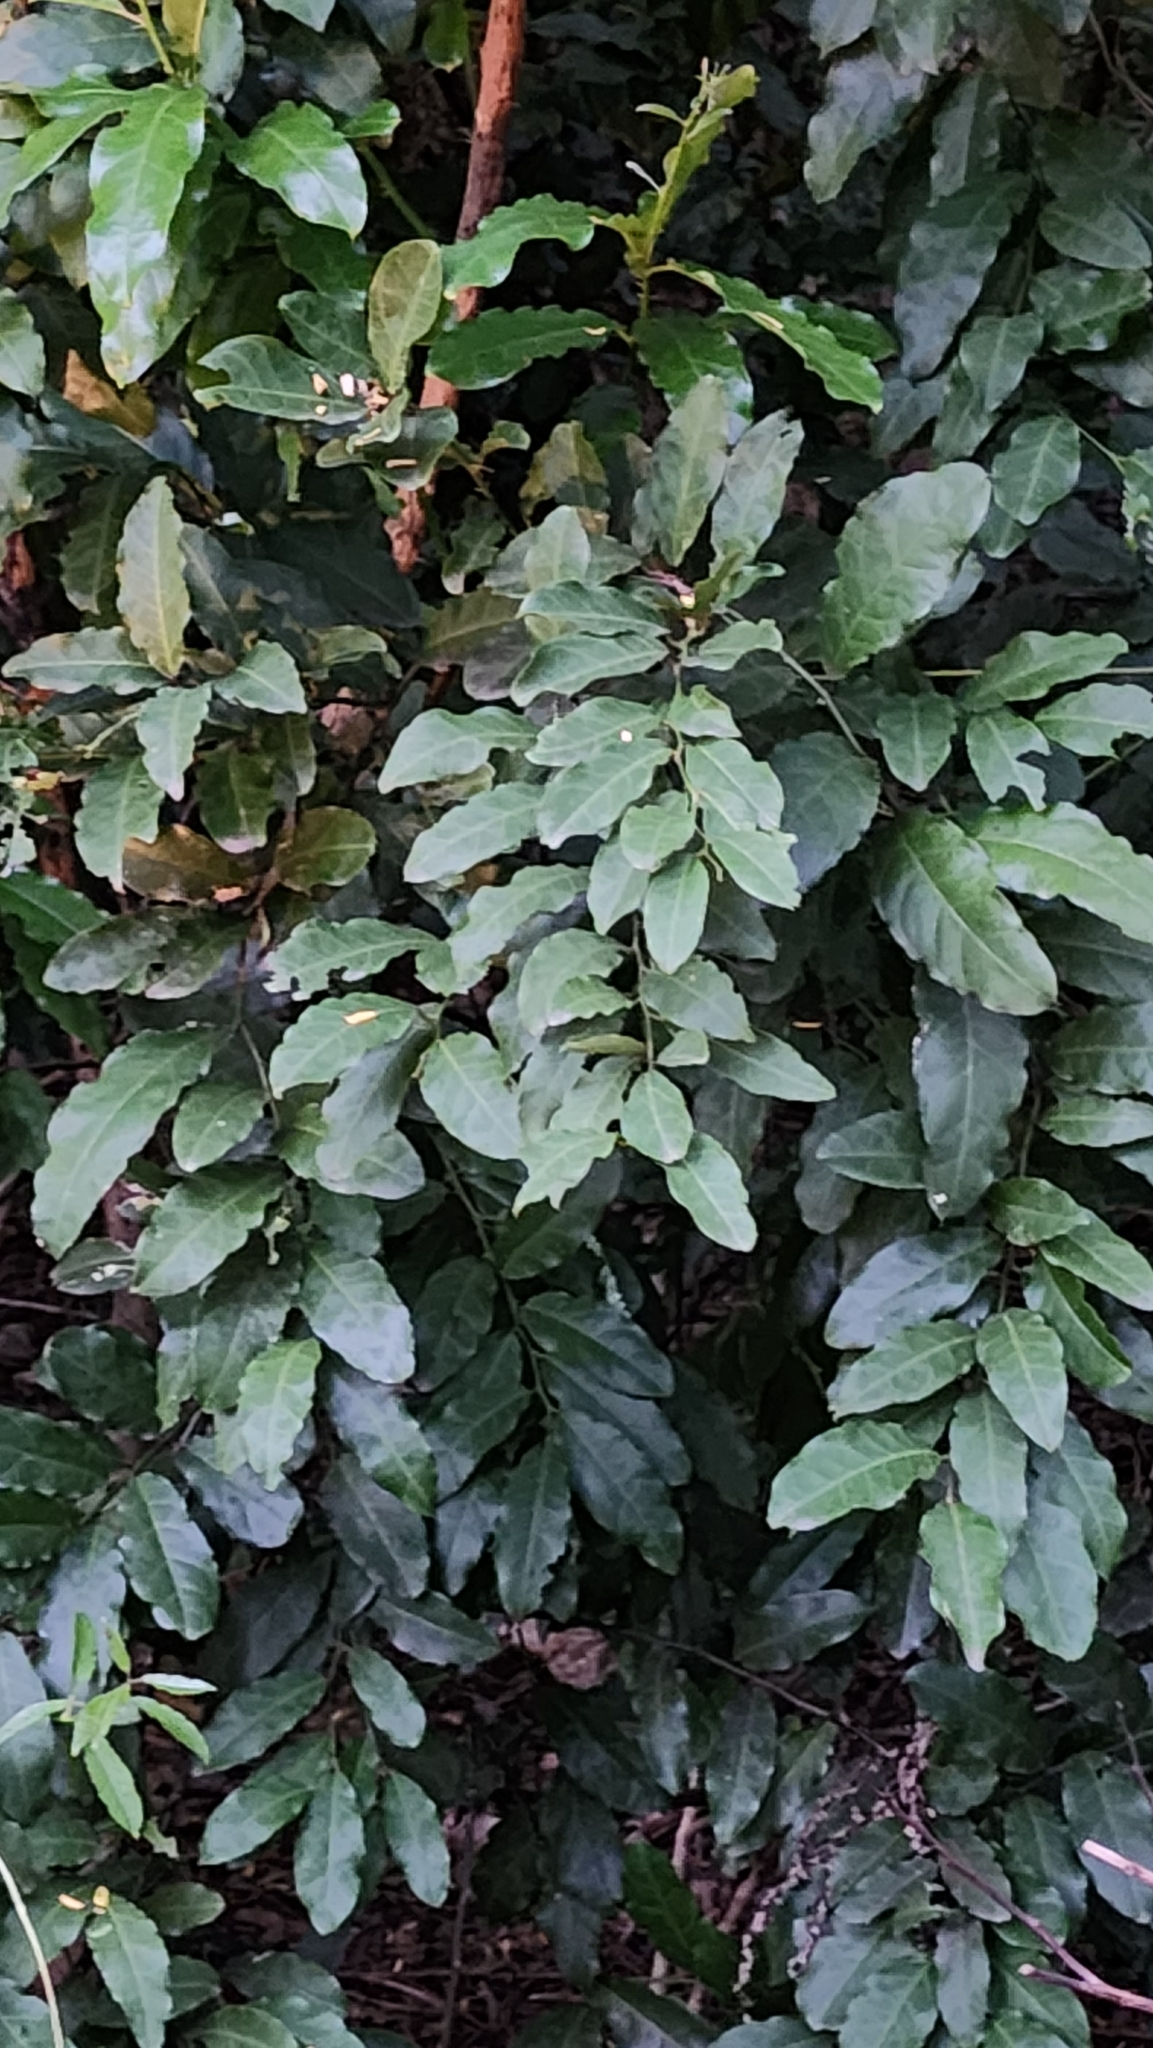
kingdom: Plantae
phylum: Tracheophyta
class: Magnoliopsida
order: Brassicales
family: Capparaceae
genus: Capparis
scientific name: Capparis micracantha
